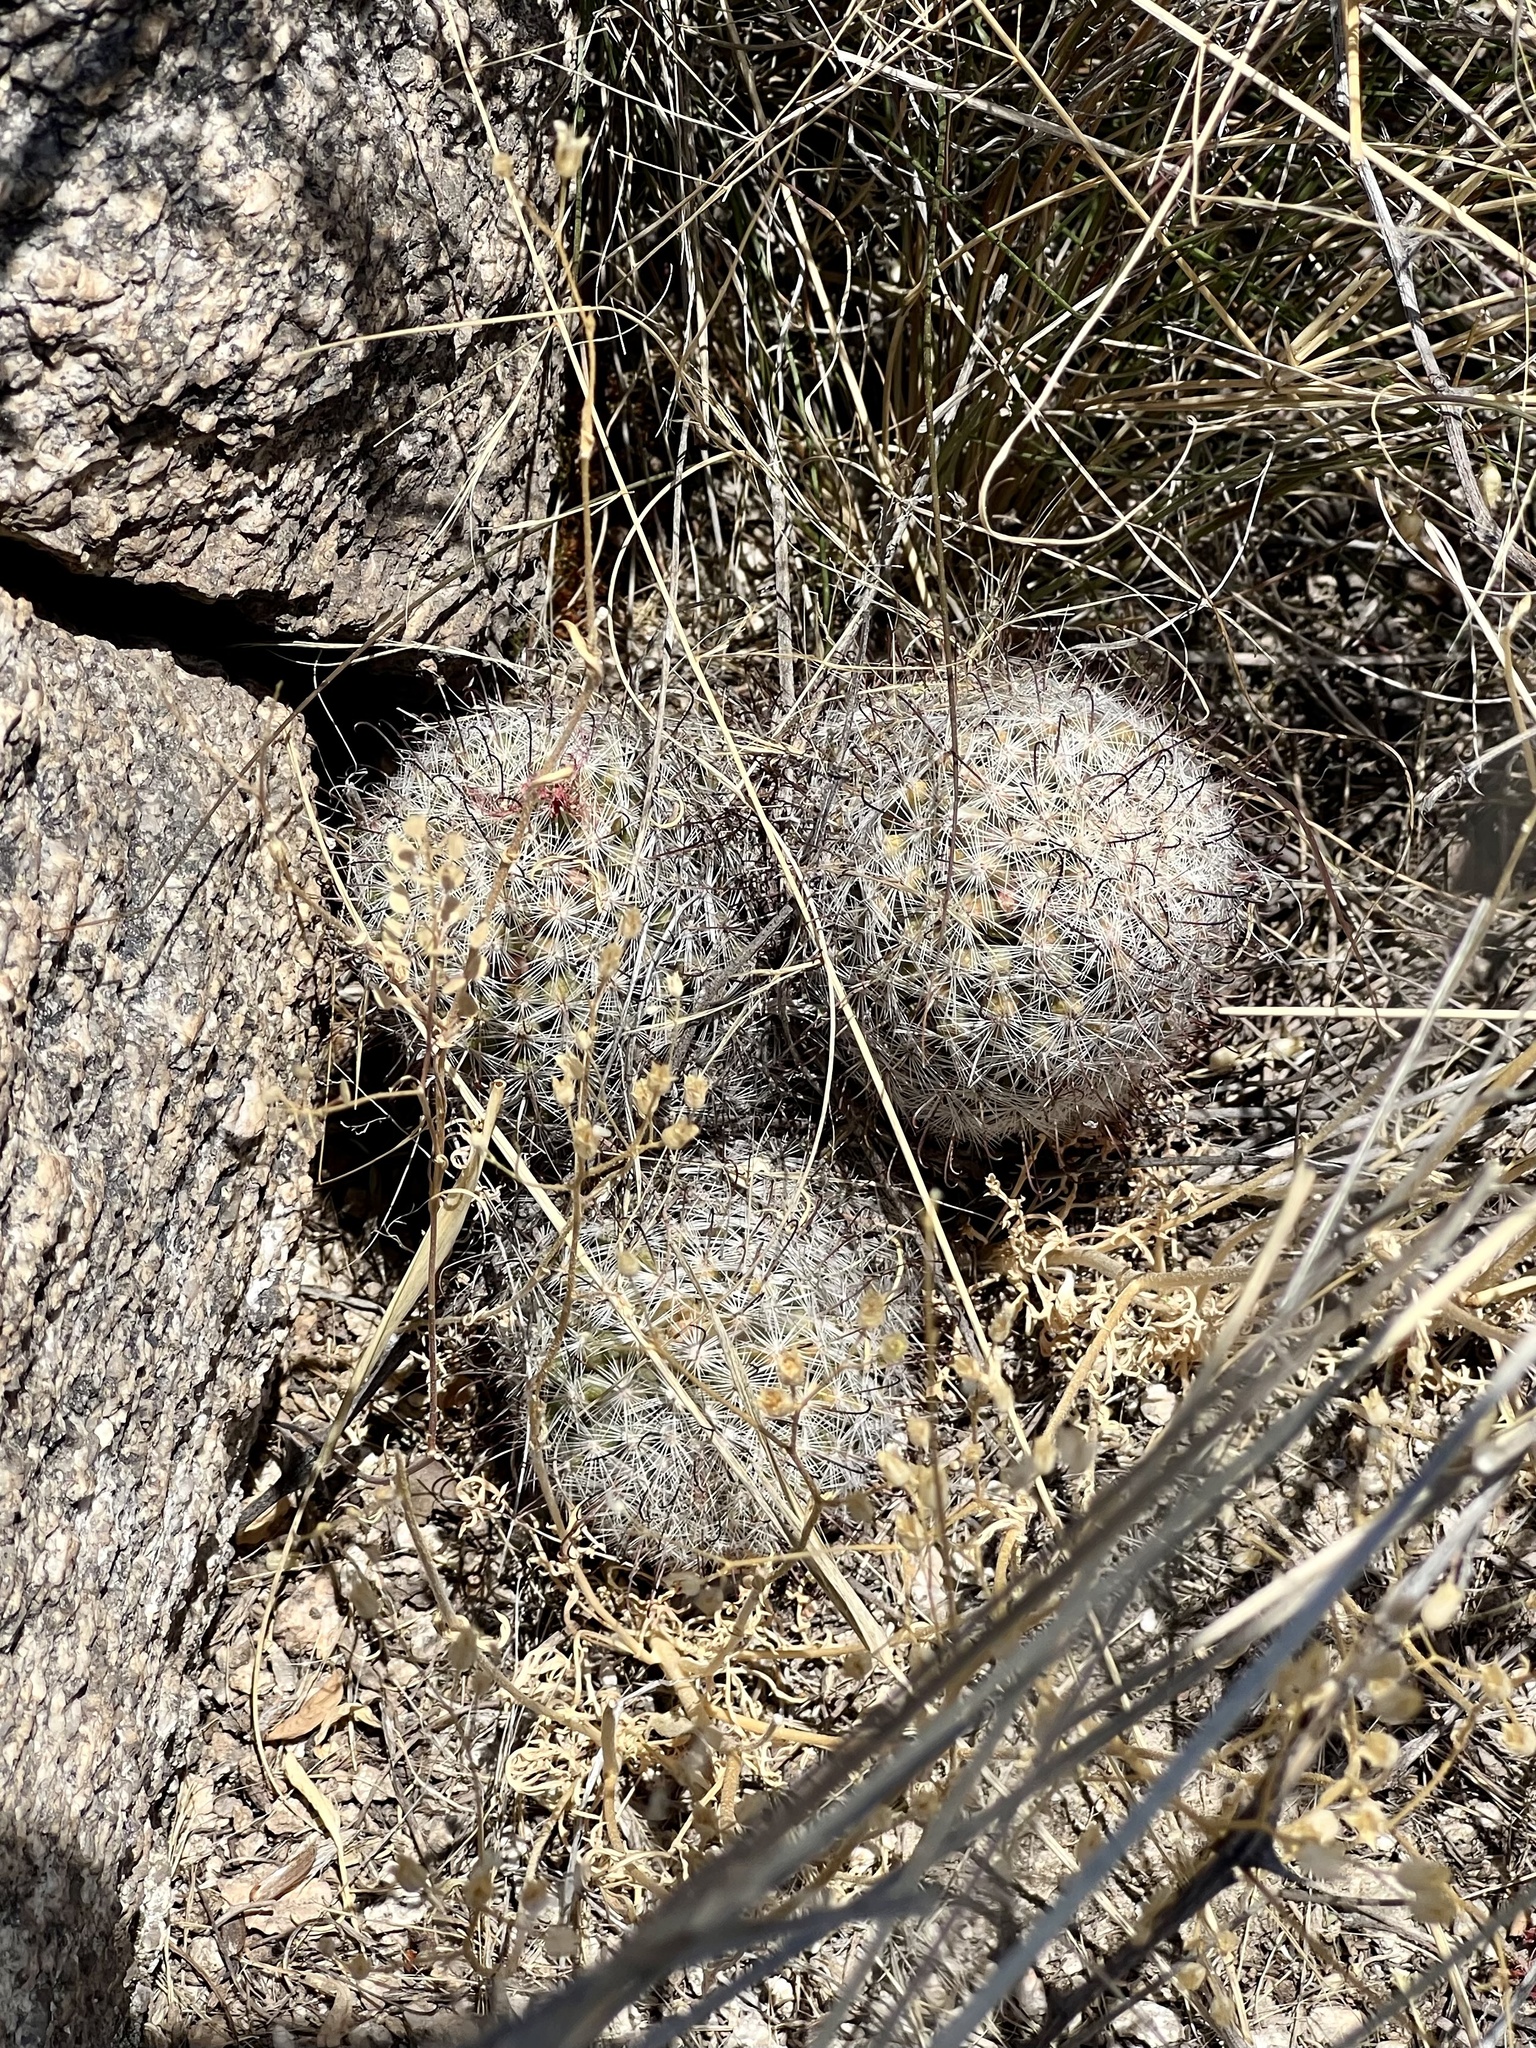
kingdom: Plantae
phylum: Tracheophyta
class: Magnoliopsida
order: Caryophyllales
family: Cactaceae
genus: Cochemiea
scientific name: Cochemiea grahamii
